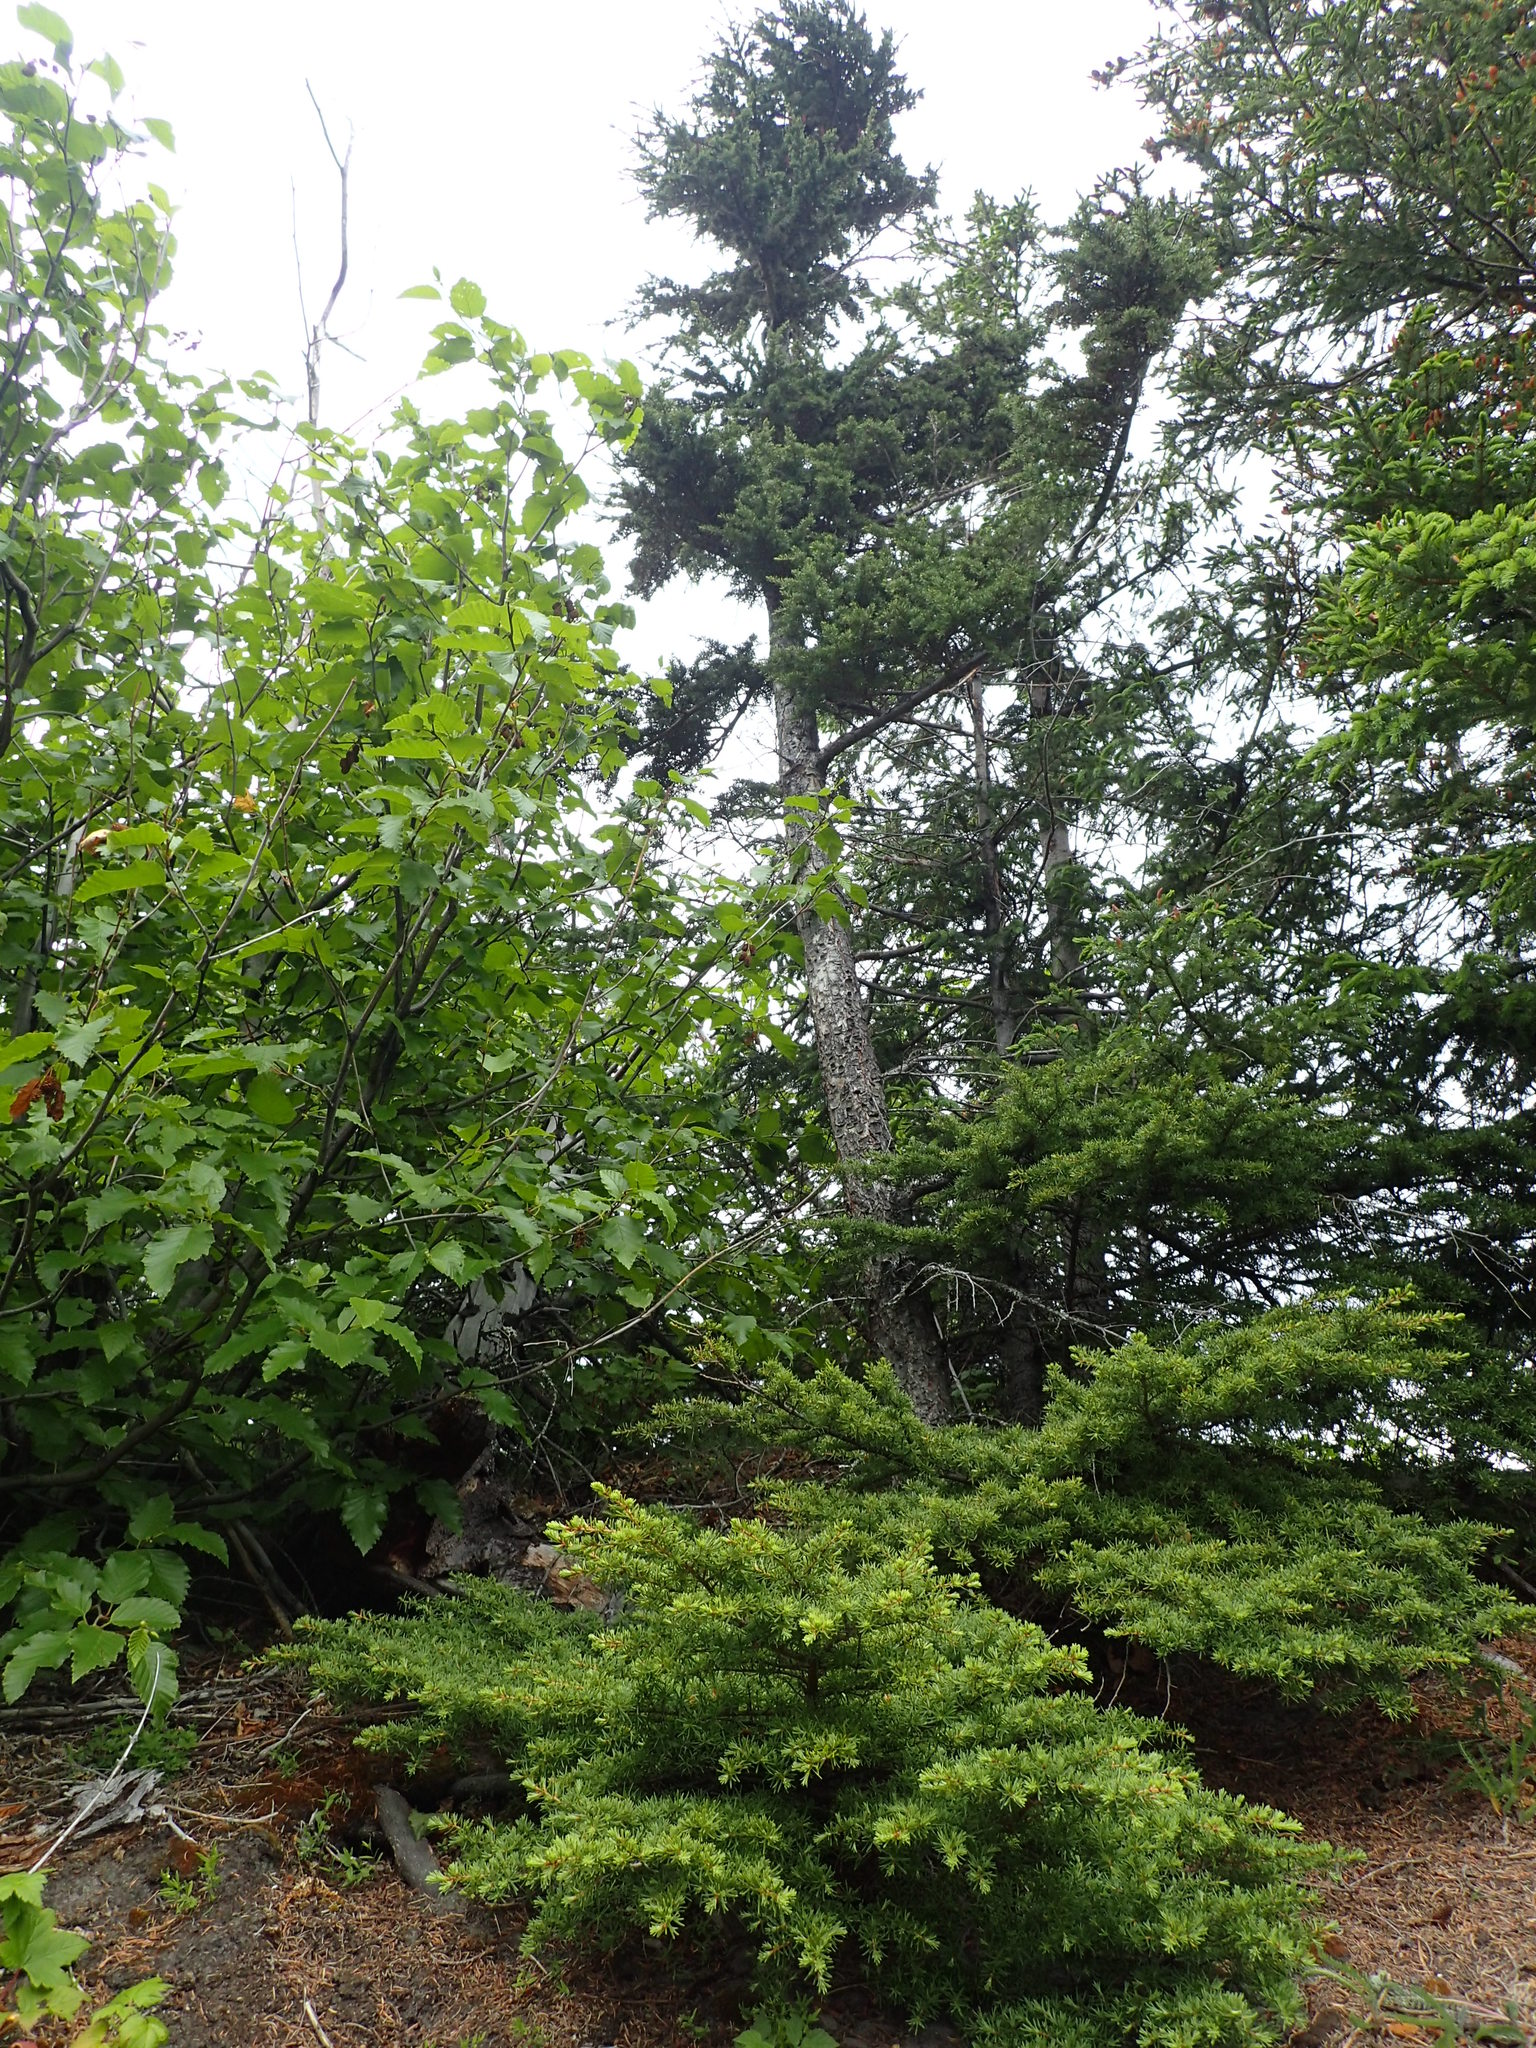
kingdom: Plantae
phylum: Tracheophyta
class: Pinopsida
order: Pinales
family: Pinaceae
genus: Tsuga
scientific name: Tsuga mertensiana
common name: Mountain hemlock
